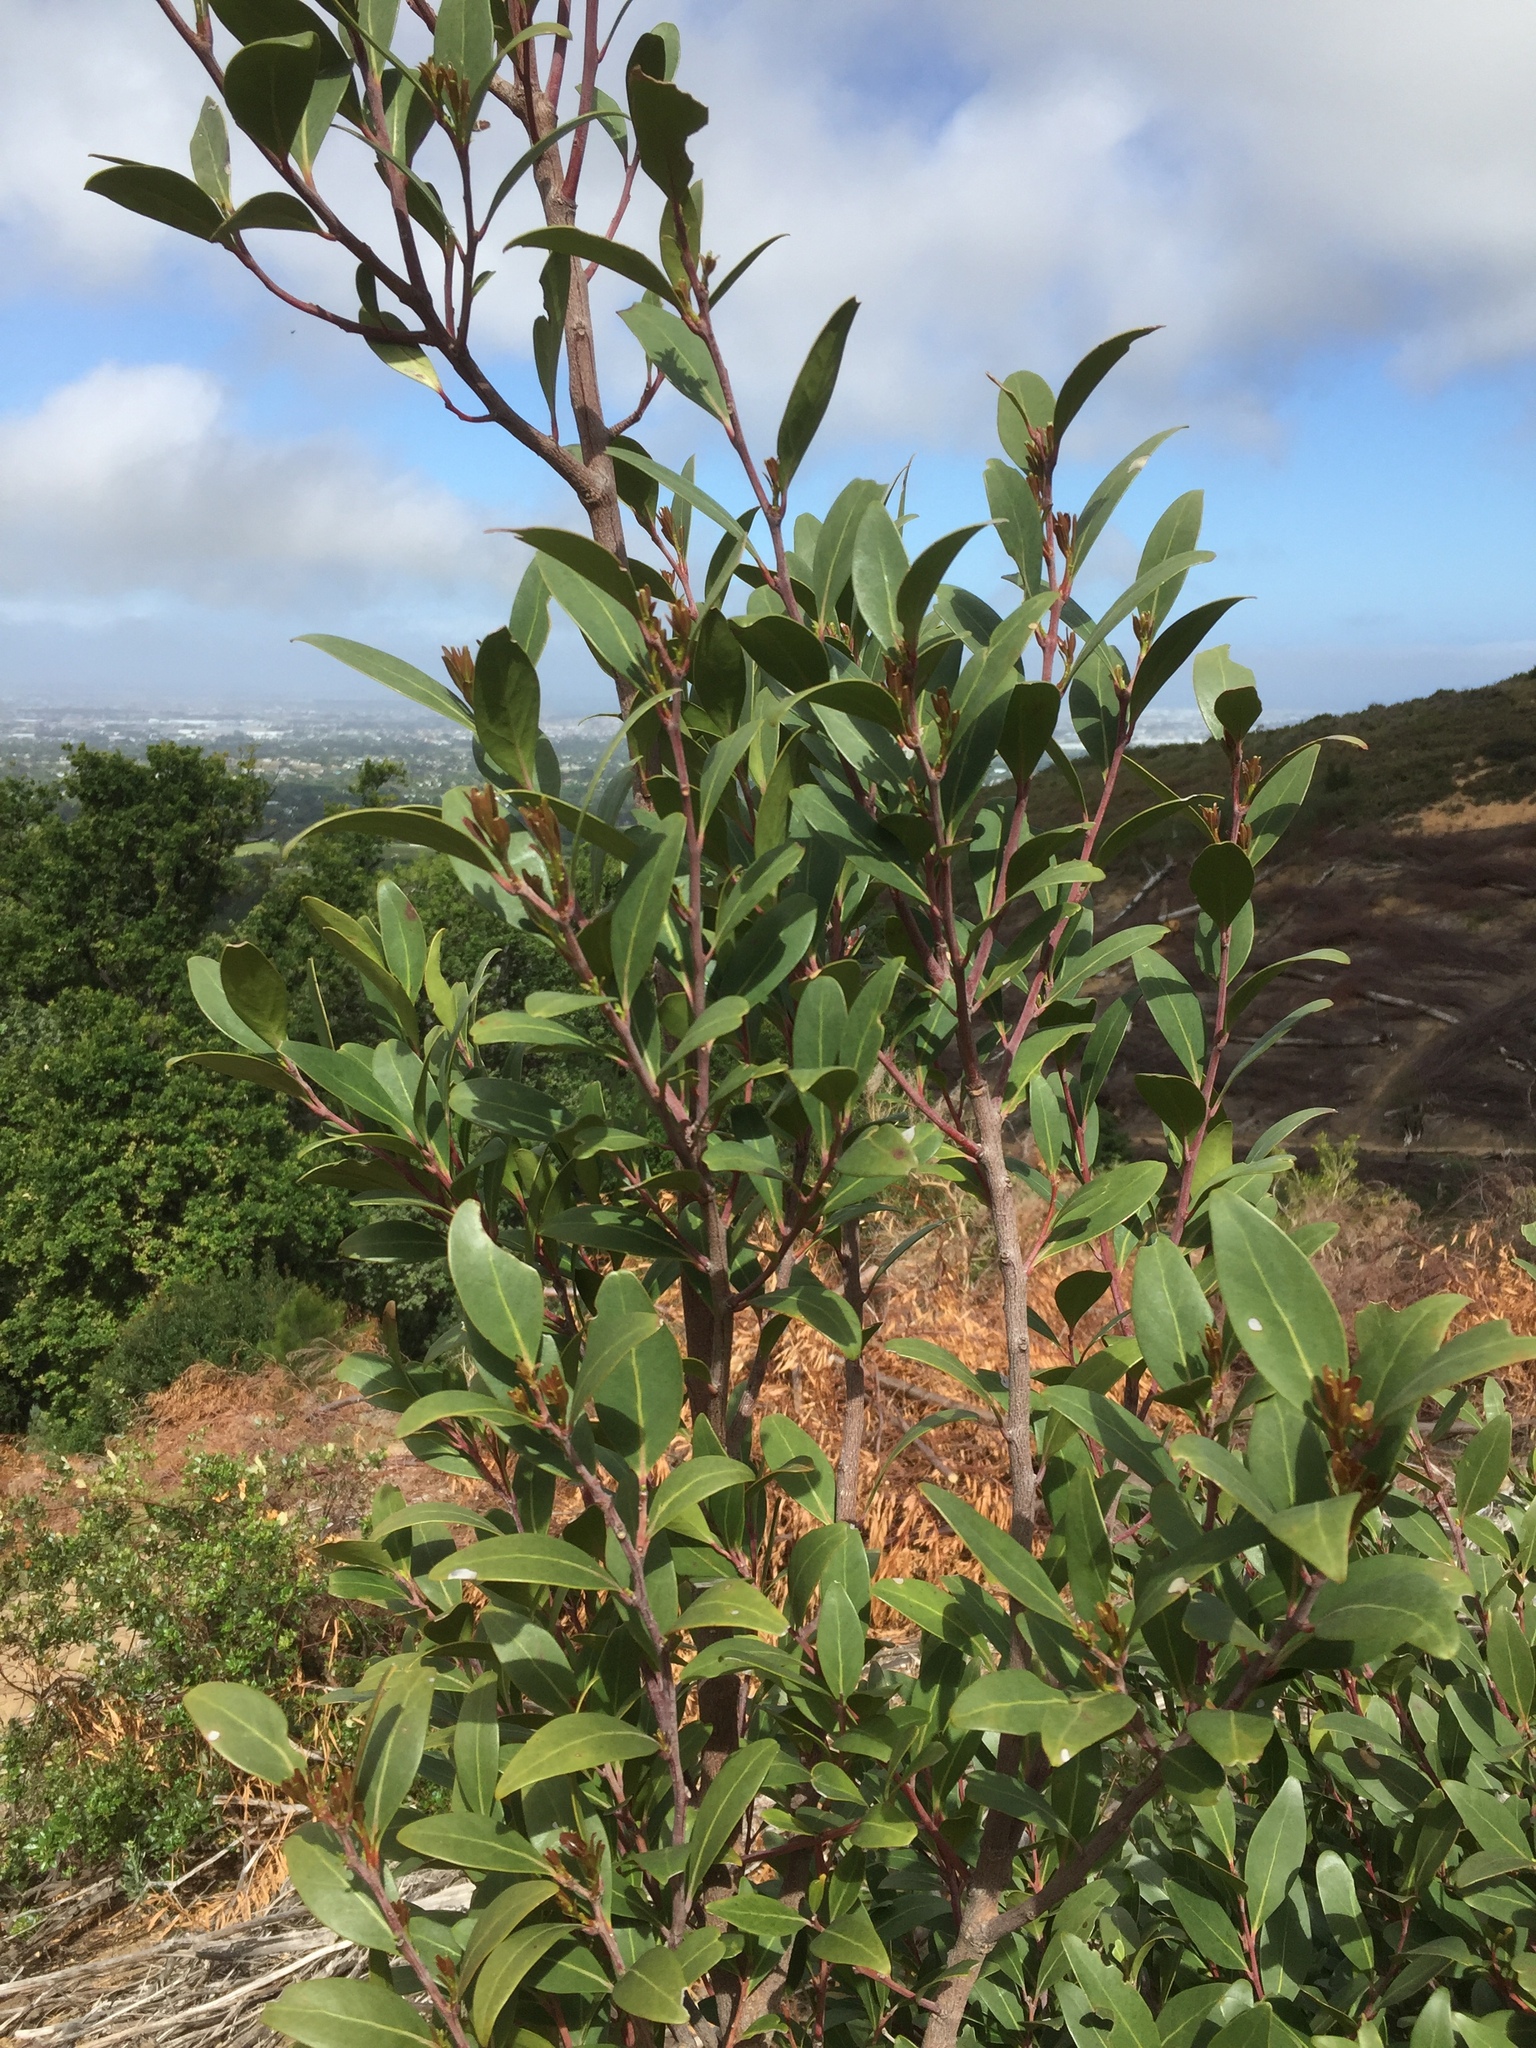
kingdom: Plantae
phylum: Tracheophyta
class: Magnoliopsida
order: Celastrales
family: Celastraceae
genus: Pterocelastrus
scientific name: Pterocelastrus tricuspidatus
